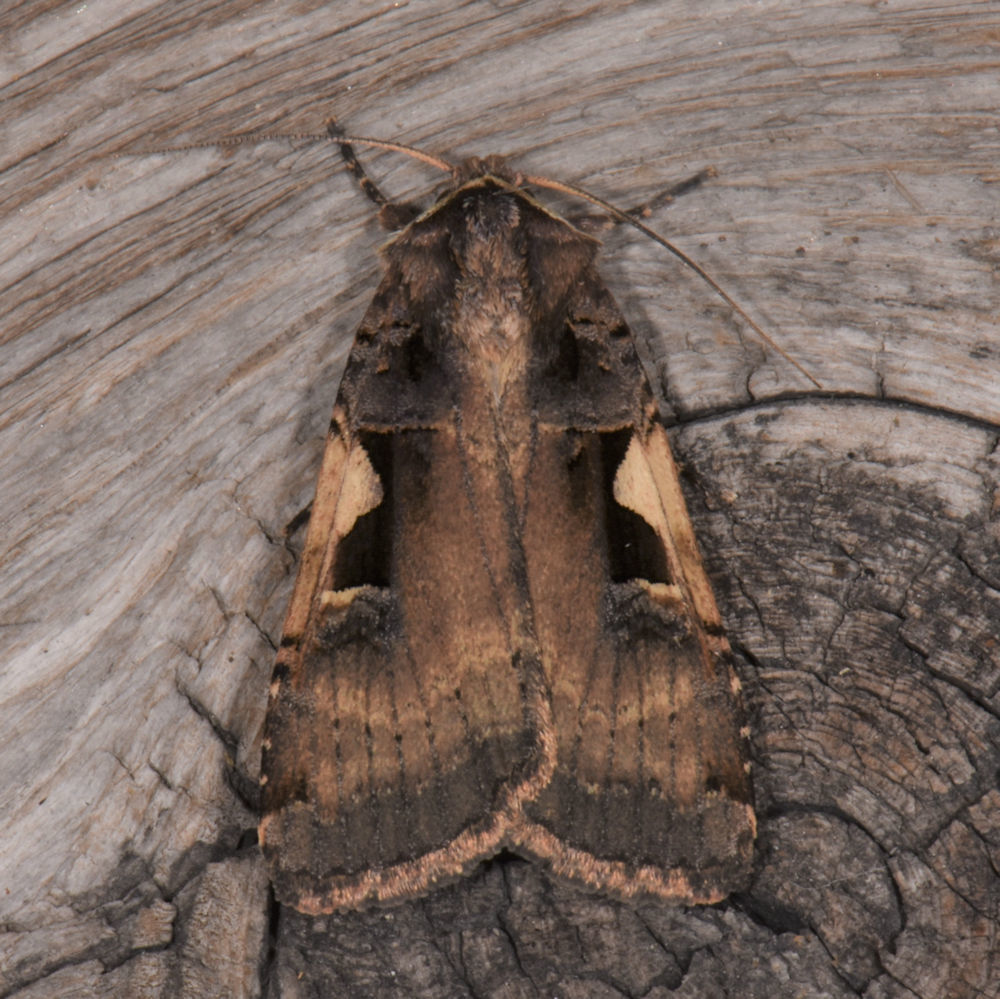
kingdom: Animalia
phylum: Arthropoda
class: Insecta
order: Lepidoptera
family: Noctuidae
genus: Xestia
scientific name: Xestia
